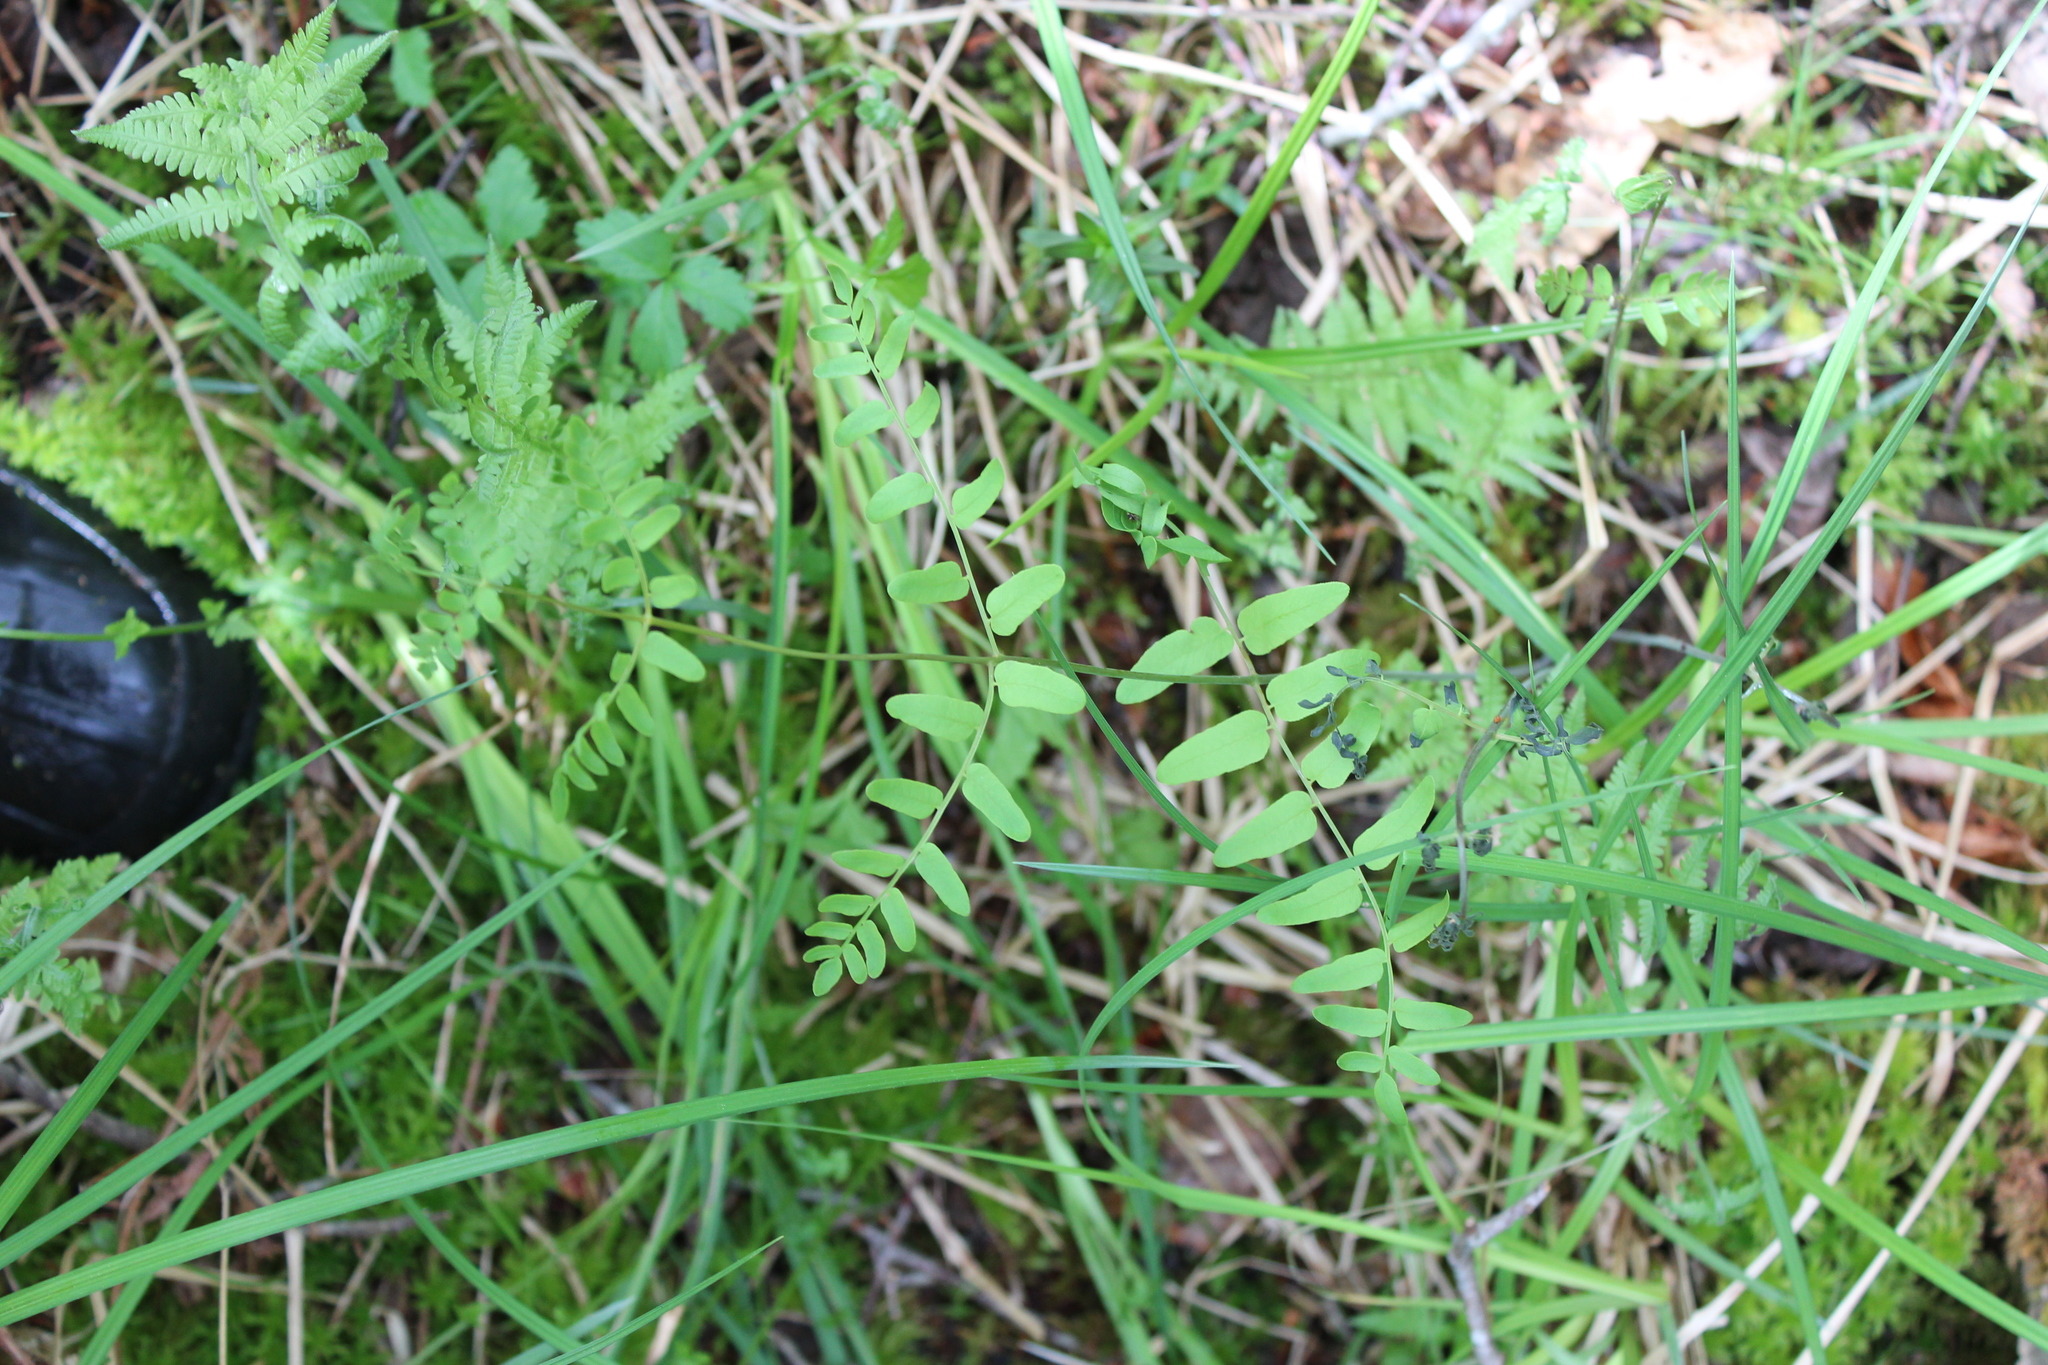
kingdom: Plantae
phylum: Tracheophyta
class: Polypodiopsida
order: Osmundales
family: Osmundaceae
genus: Osmunda
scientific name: Osmunda spectabilis
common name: American royal fern
